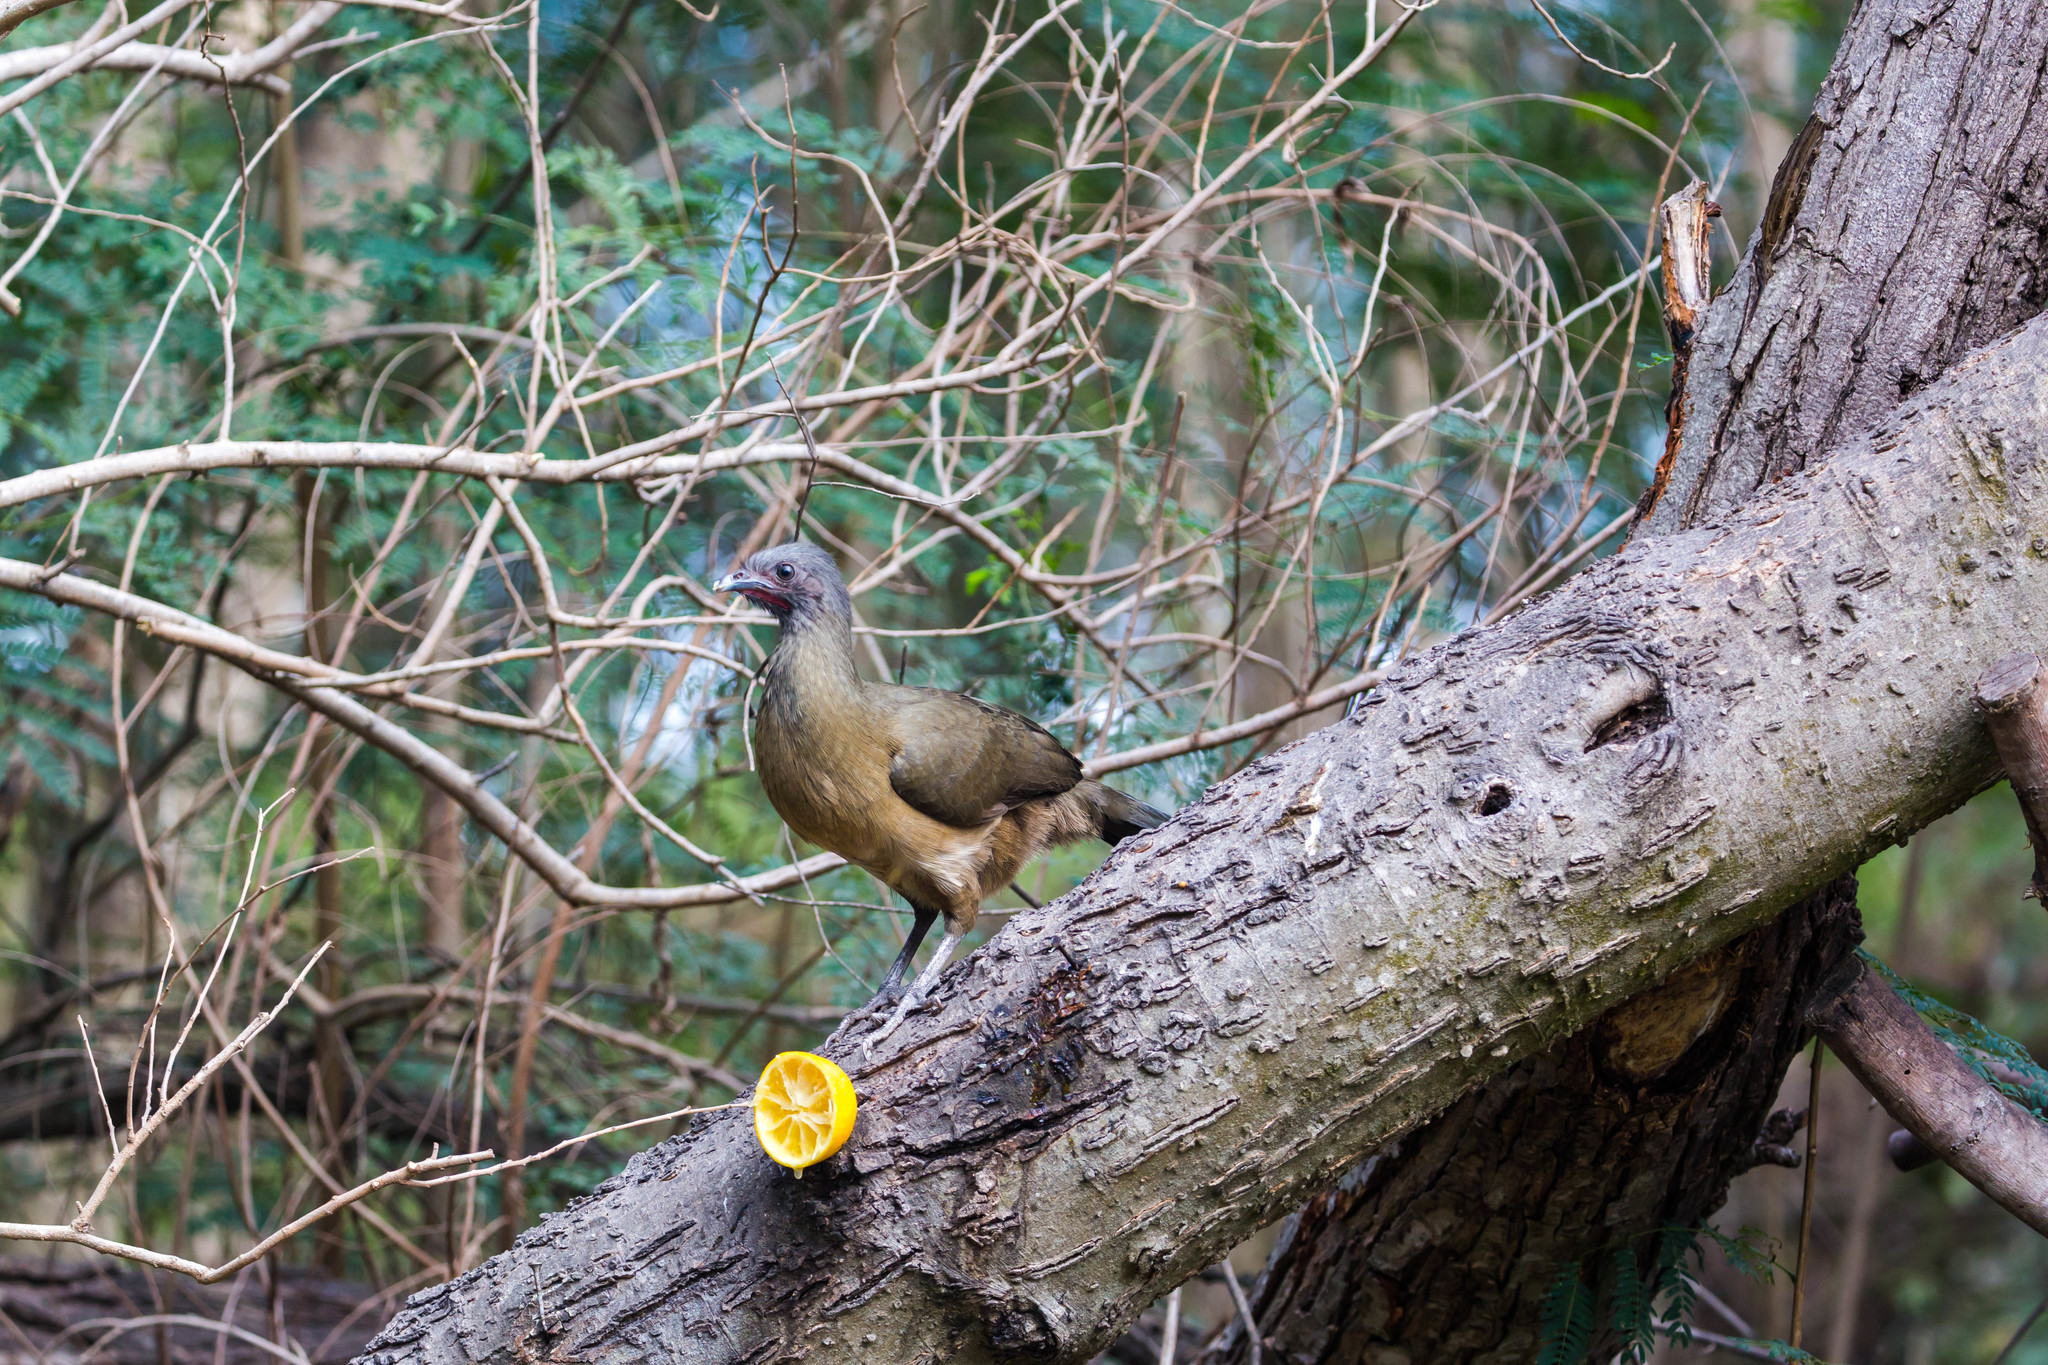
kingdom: Animalia
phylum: Chordata
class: Aves
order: Galliformes
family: Cracidae
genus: Ortalis
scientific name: Ortalis vetula
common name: Plain chachalaca
